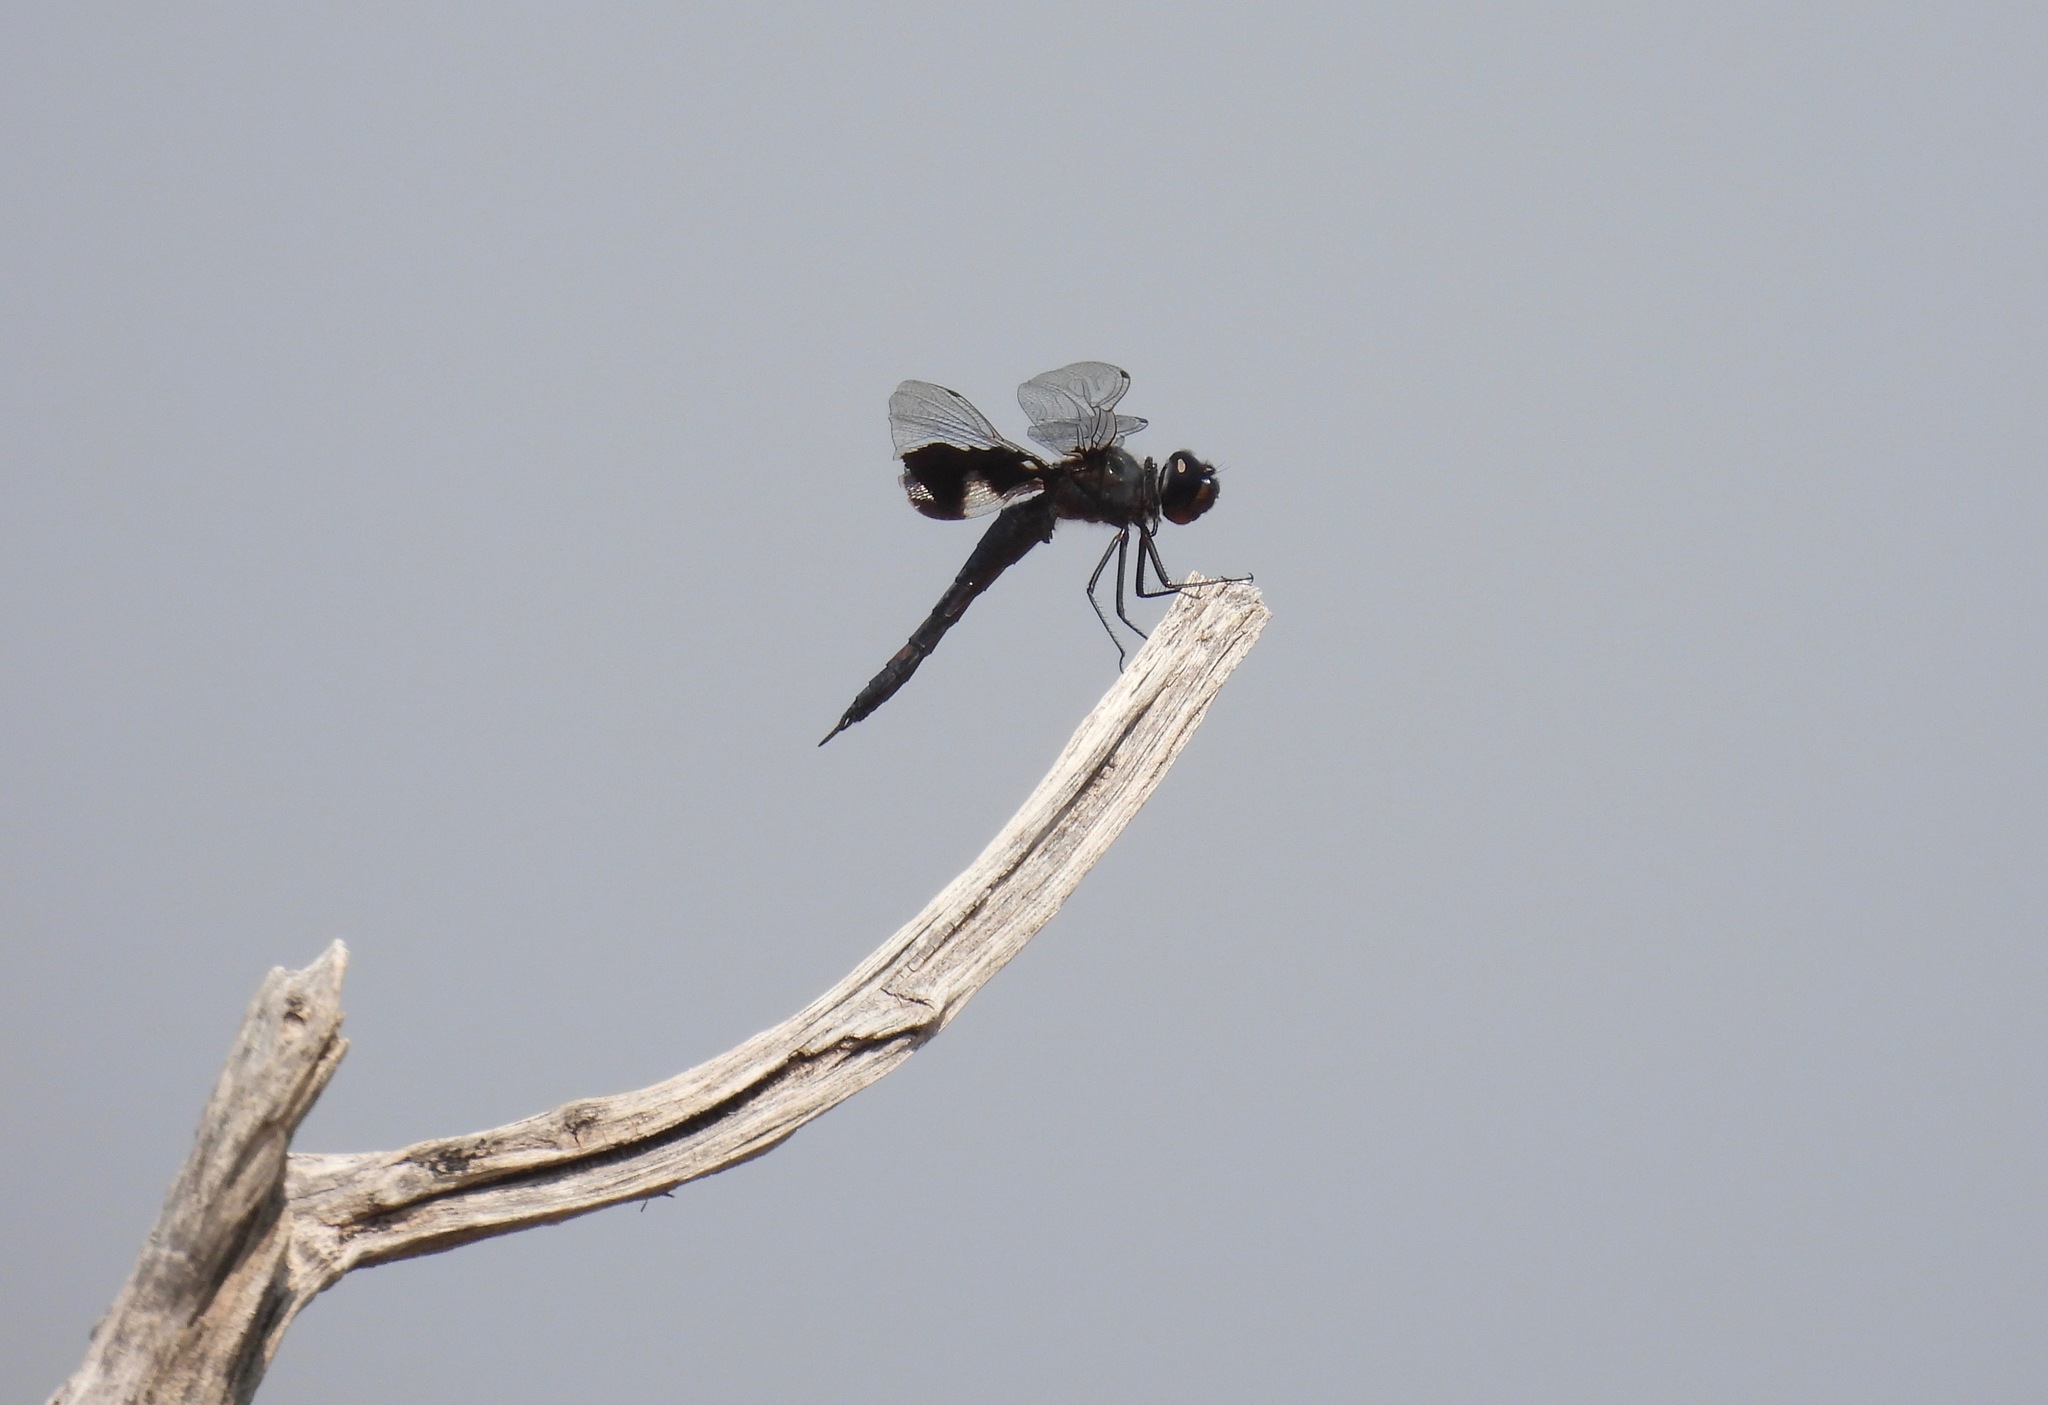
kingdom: Animalia
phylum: Arthropoda
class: Insecta
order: Odonata
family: Libellulidae
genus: Tramea
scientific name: Tramea lacerata
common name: Black saddlebags
